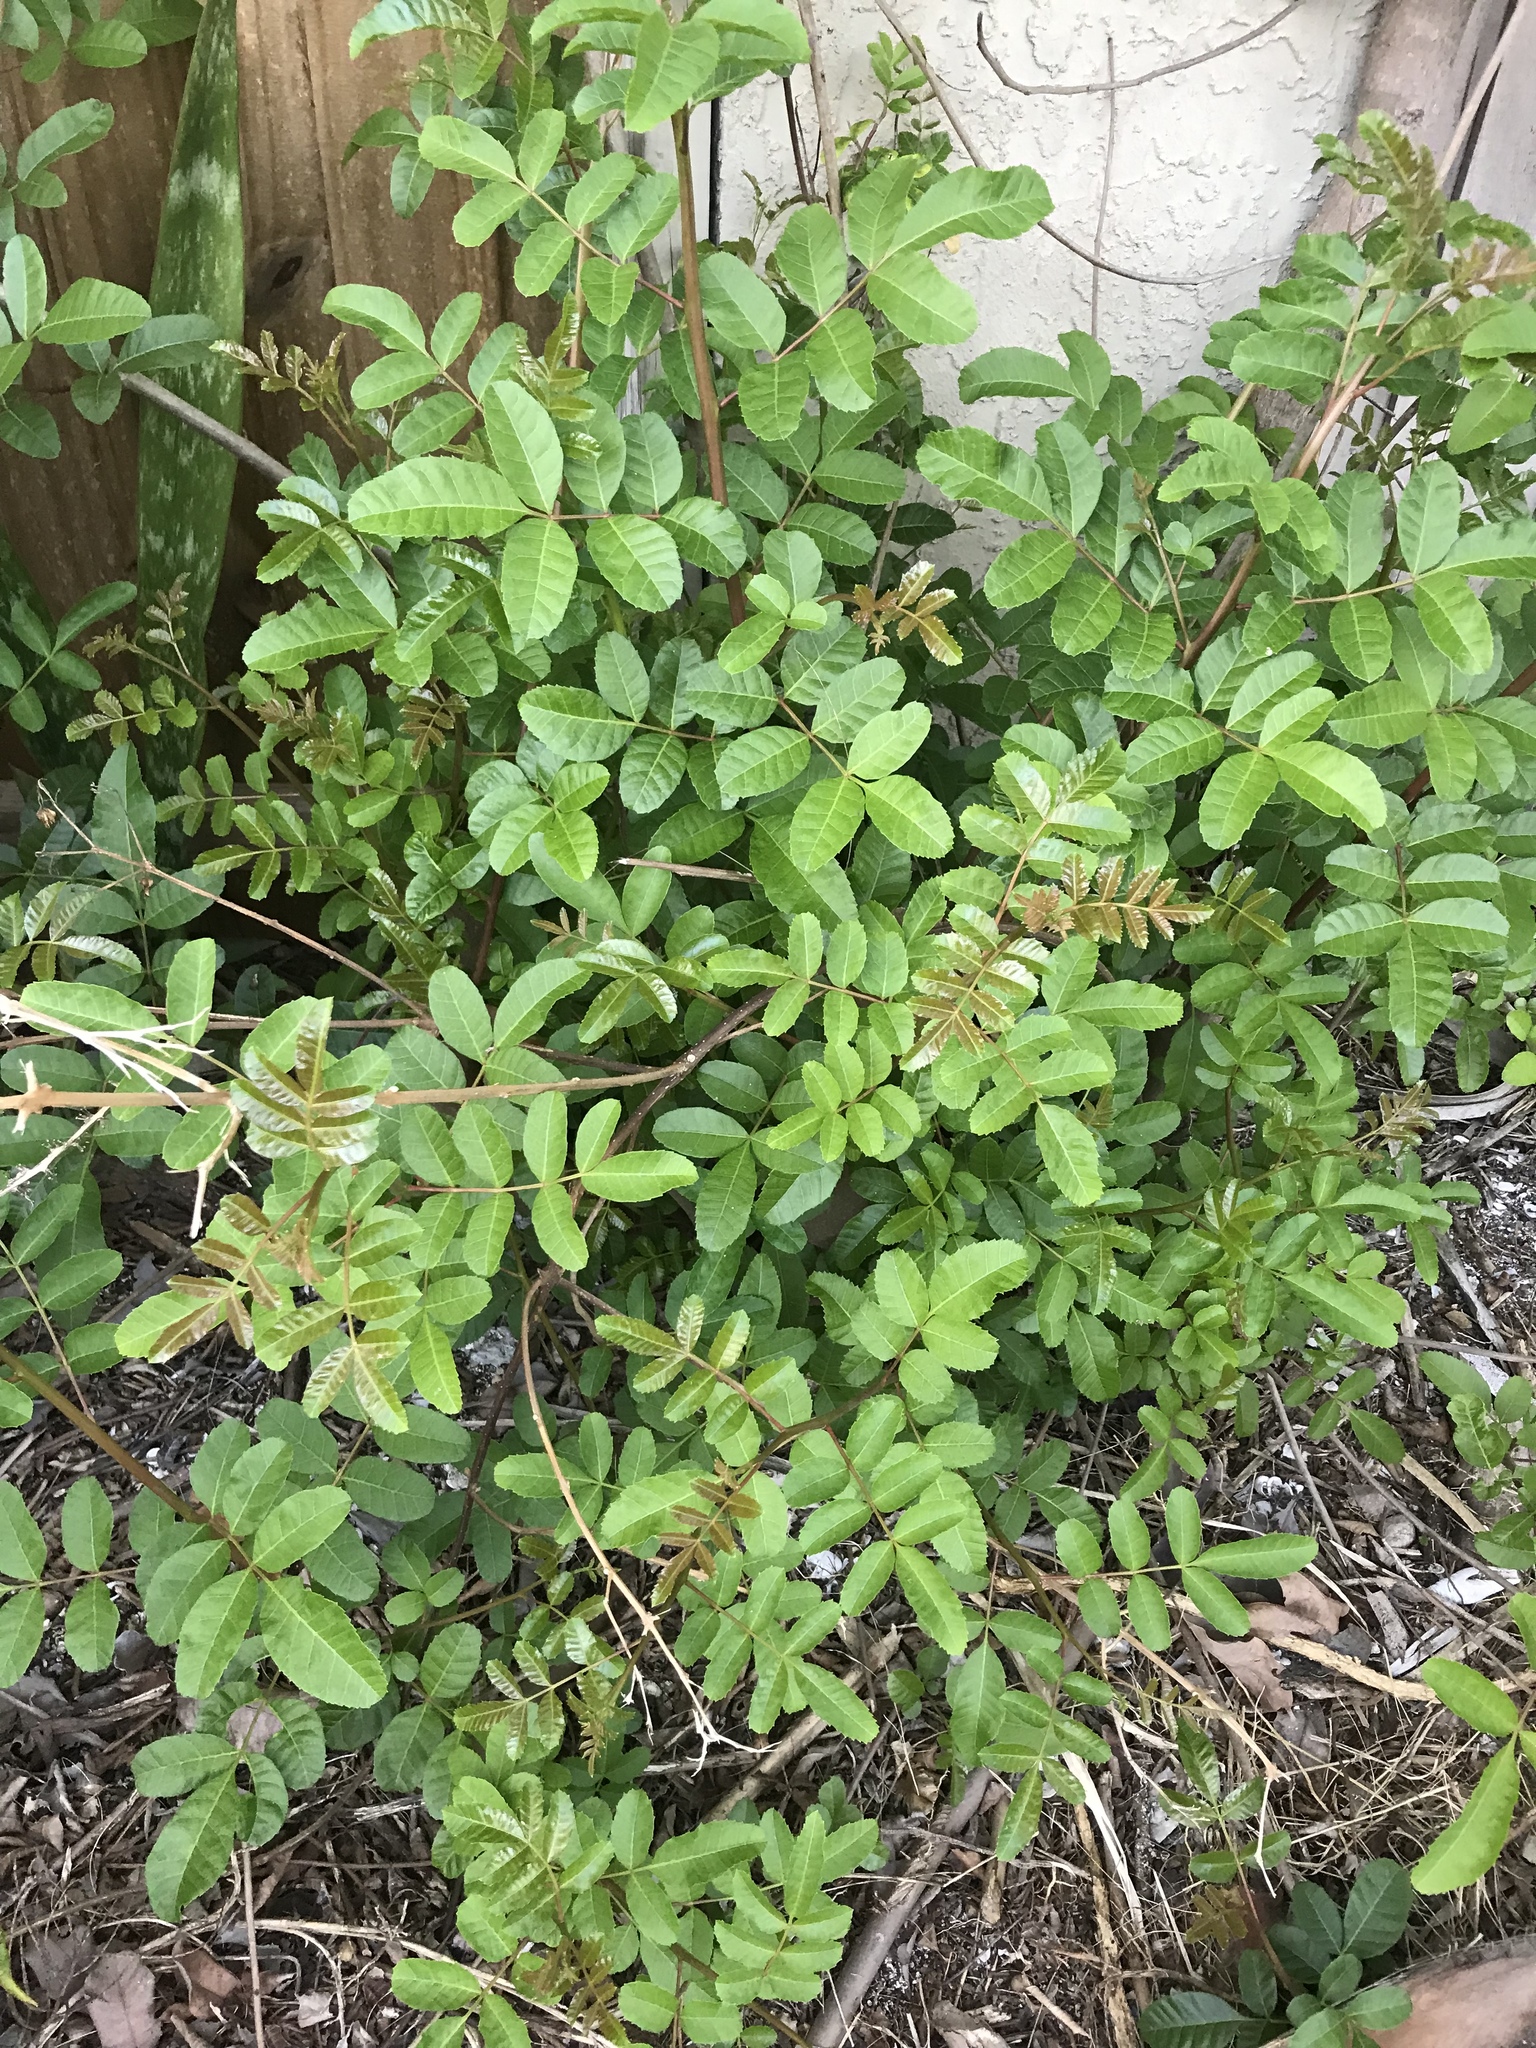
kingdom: Plantae
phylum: Tracheophyta
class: Magnoliopsida
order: Sapindales
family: Anacardiaceae
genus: Schinus
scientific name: Schinus terebinthifolia
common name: Brazilian peppertree
